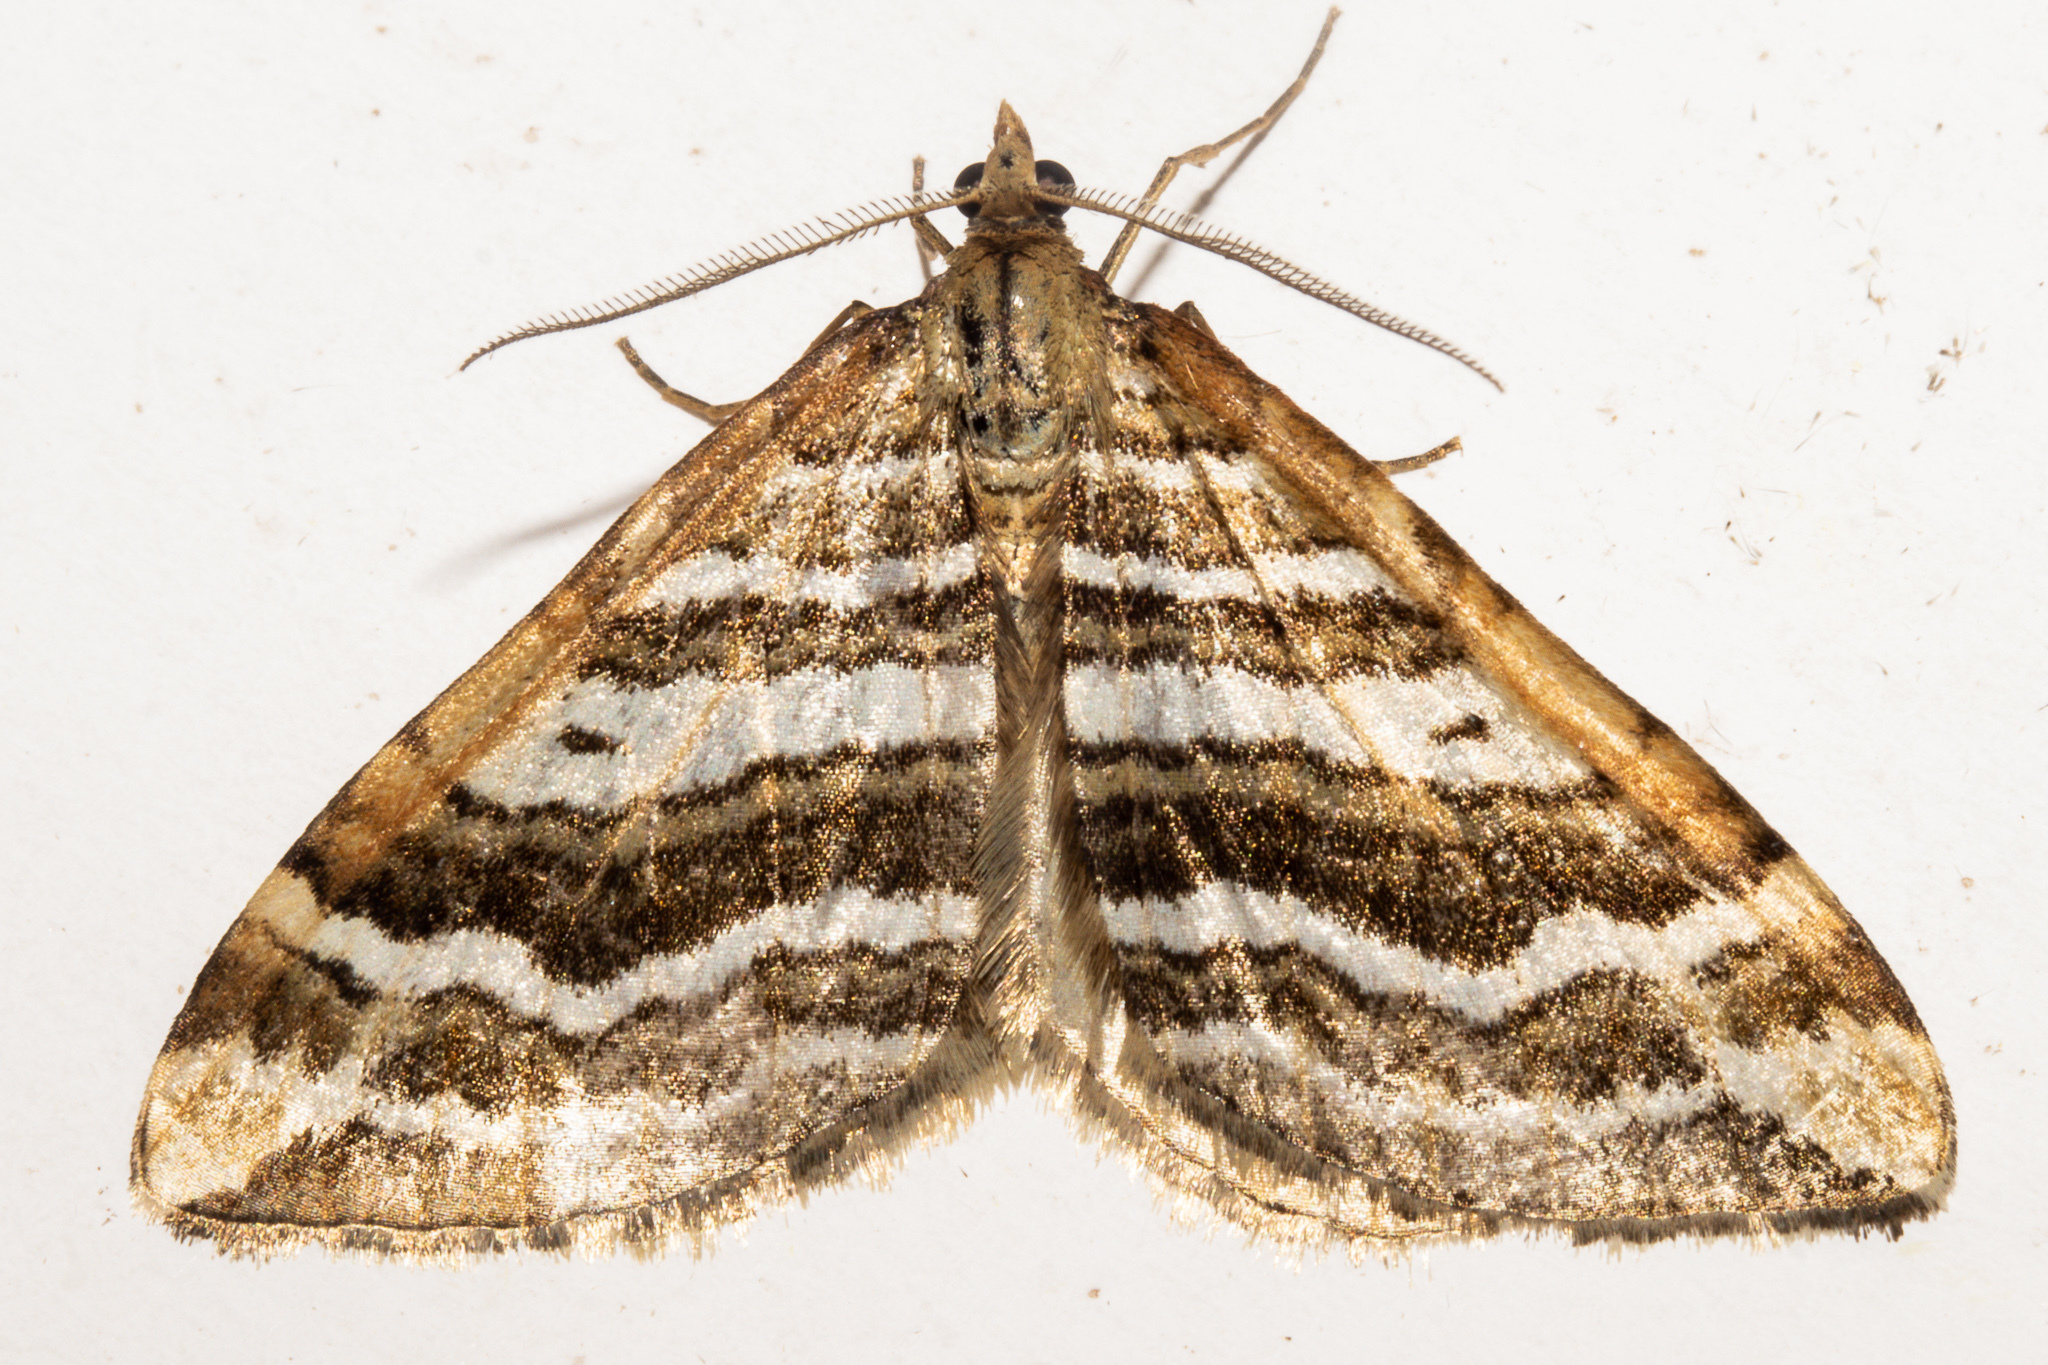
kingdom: Animalia
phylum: Arthropoda
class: Insecta
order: Lepidoptera
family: Geometridae
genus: Asaphodes
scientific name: Asaphodes cataphracta
